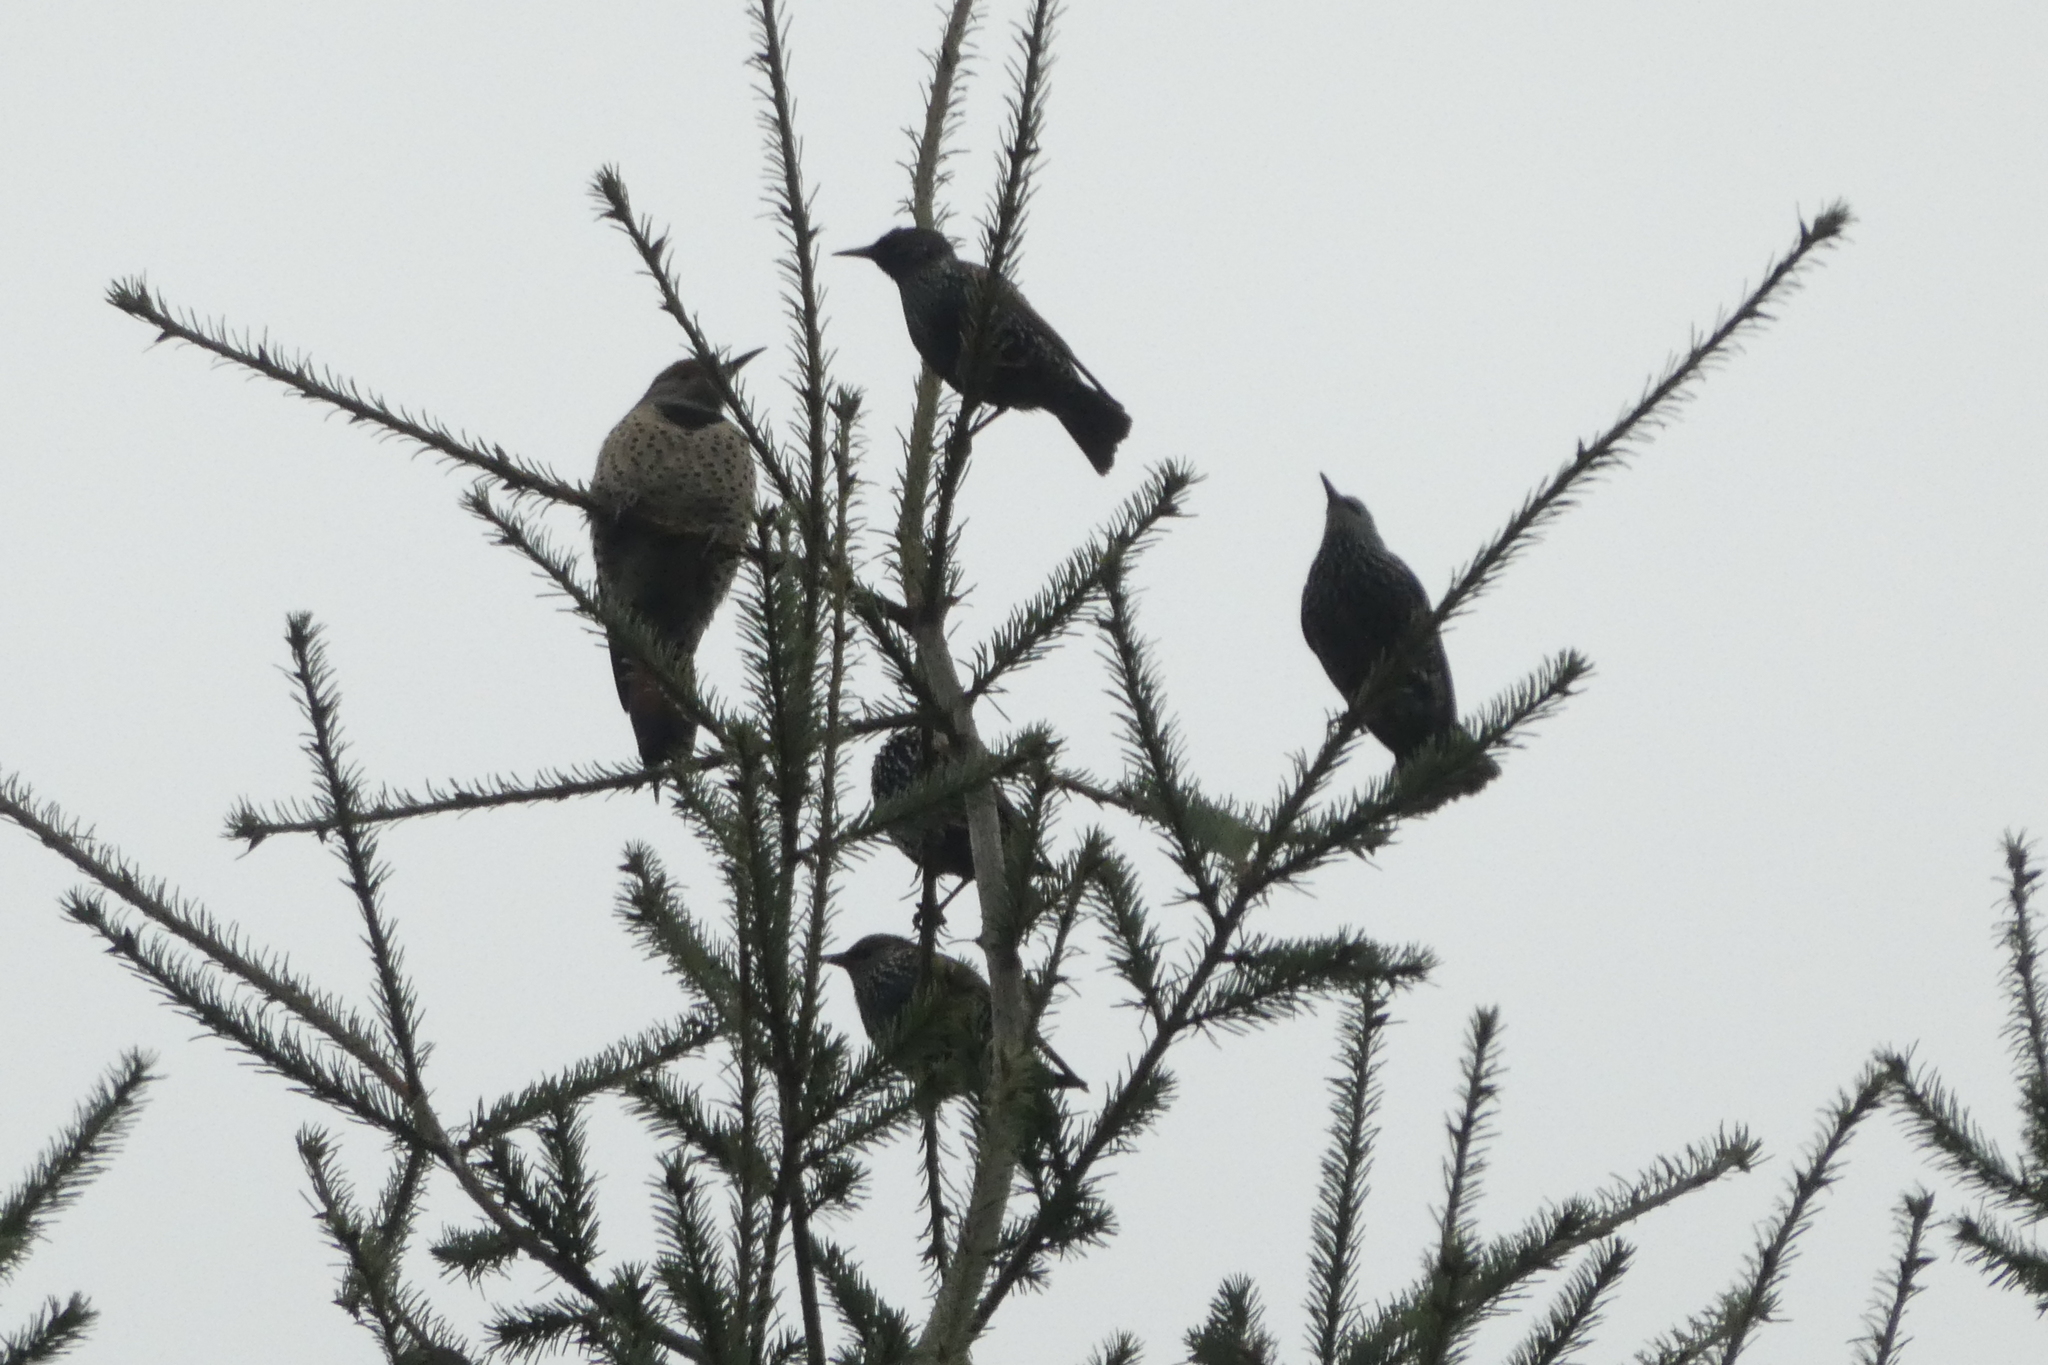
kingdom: Animalia
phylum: Chordata
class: Aves
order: Piciformes
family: Picidae
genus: Colaptes
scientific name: Colaptes auratus
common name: Northern flicker
